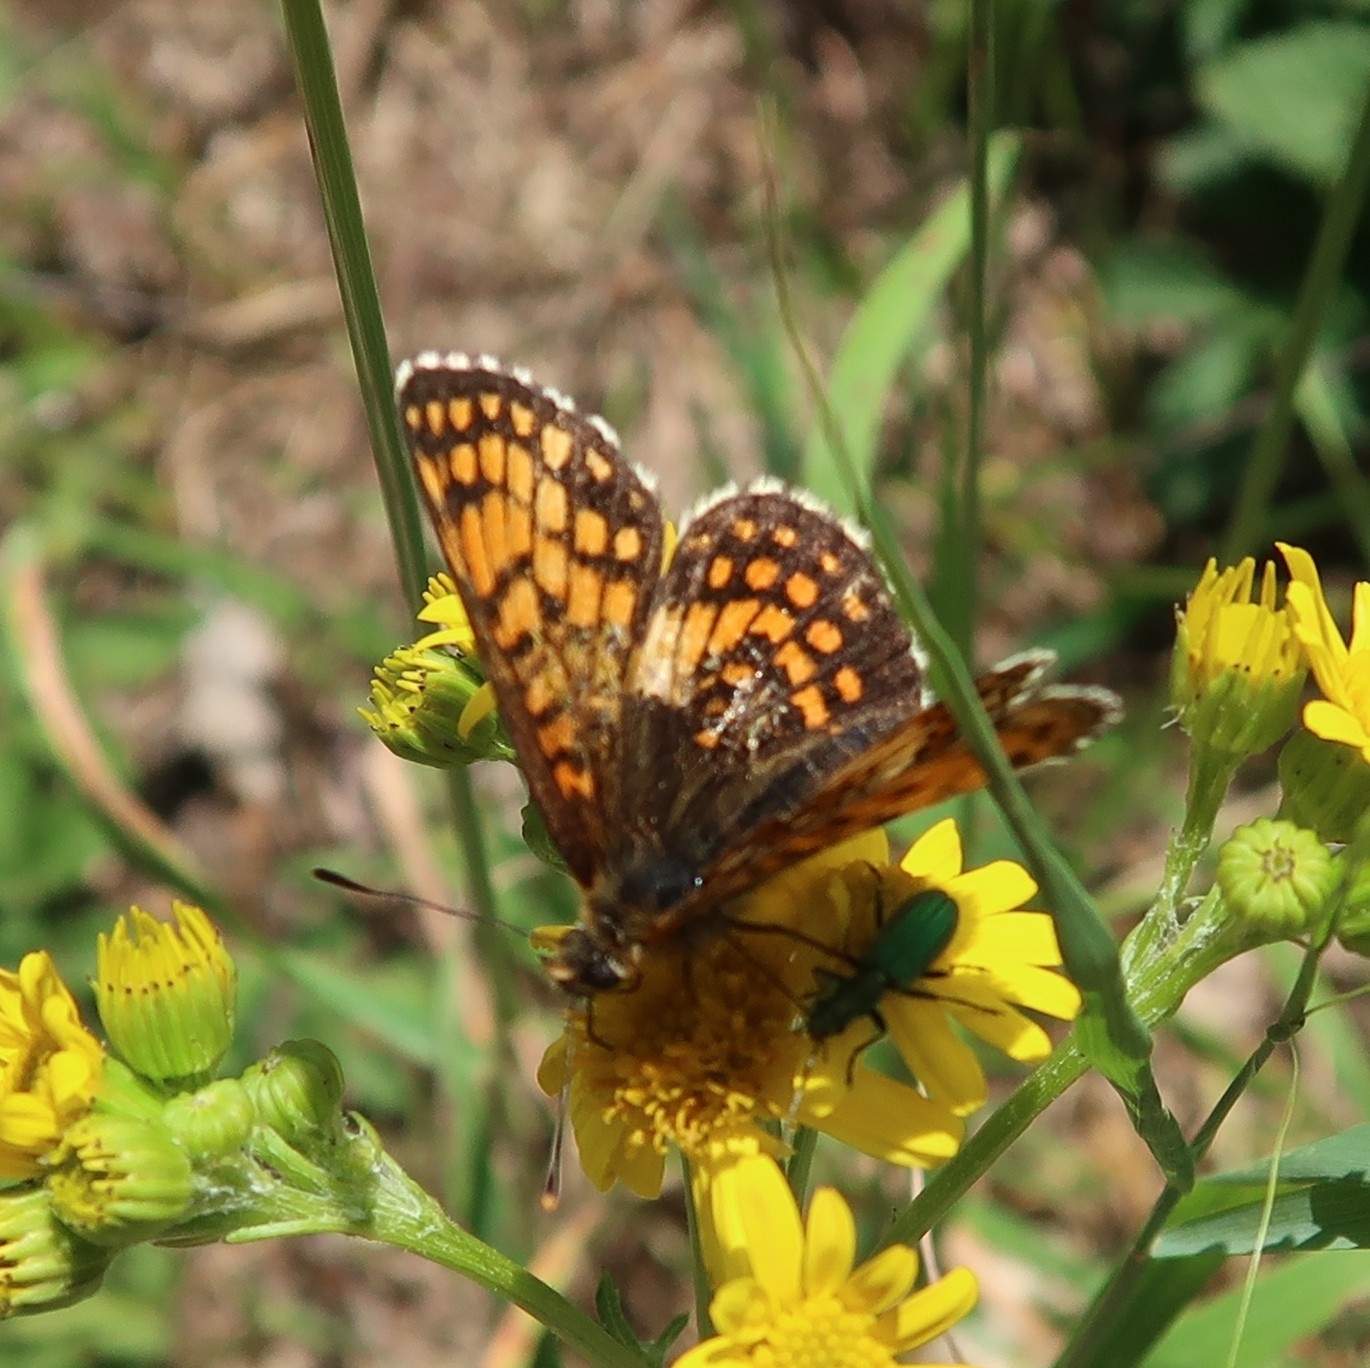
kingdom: Animalia
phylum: Arthropoda
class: Insecta
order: Lepidoptera
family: Nymphalidae
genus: Melitaea
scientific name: Melitaea athalia
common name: Heath fritillary
